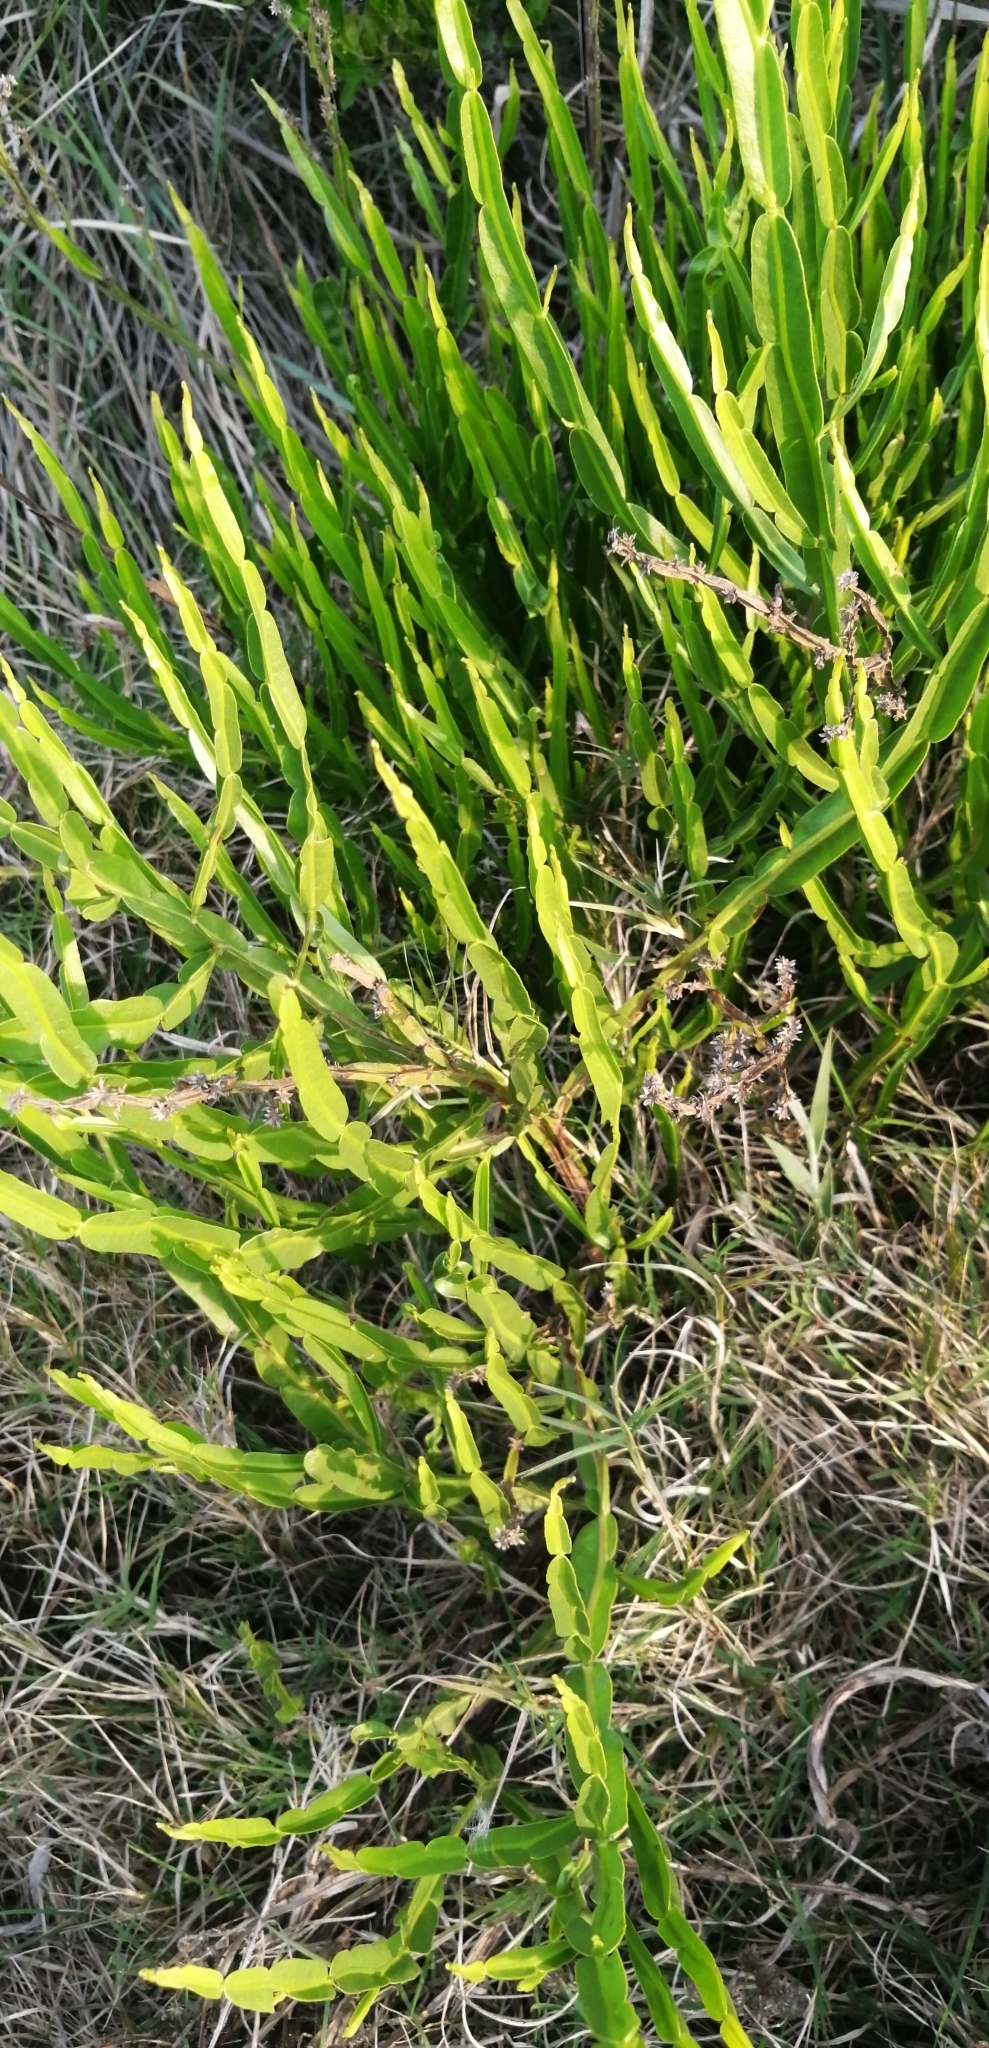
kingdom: Plantae
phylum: Tracheophyta
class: Magnoliopsida
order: Asterales
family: Asteraceae
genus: Baccharis
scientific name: Baccharis trimera
